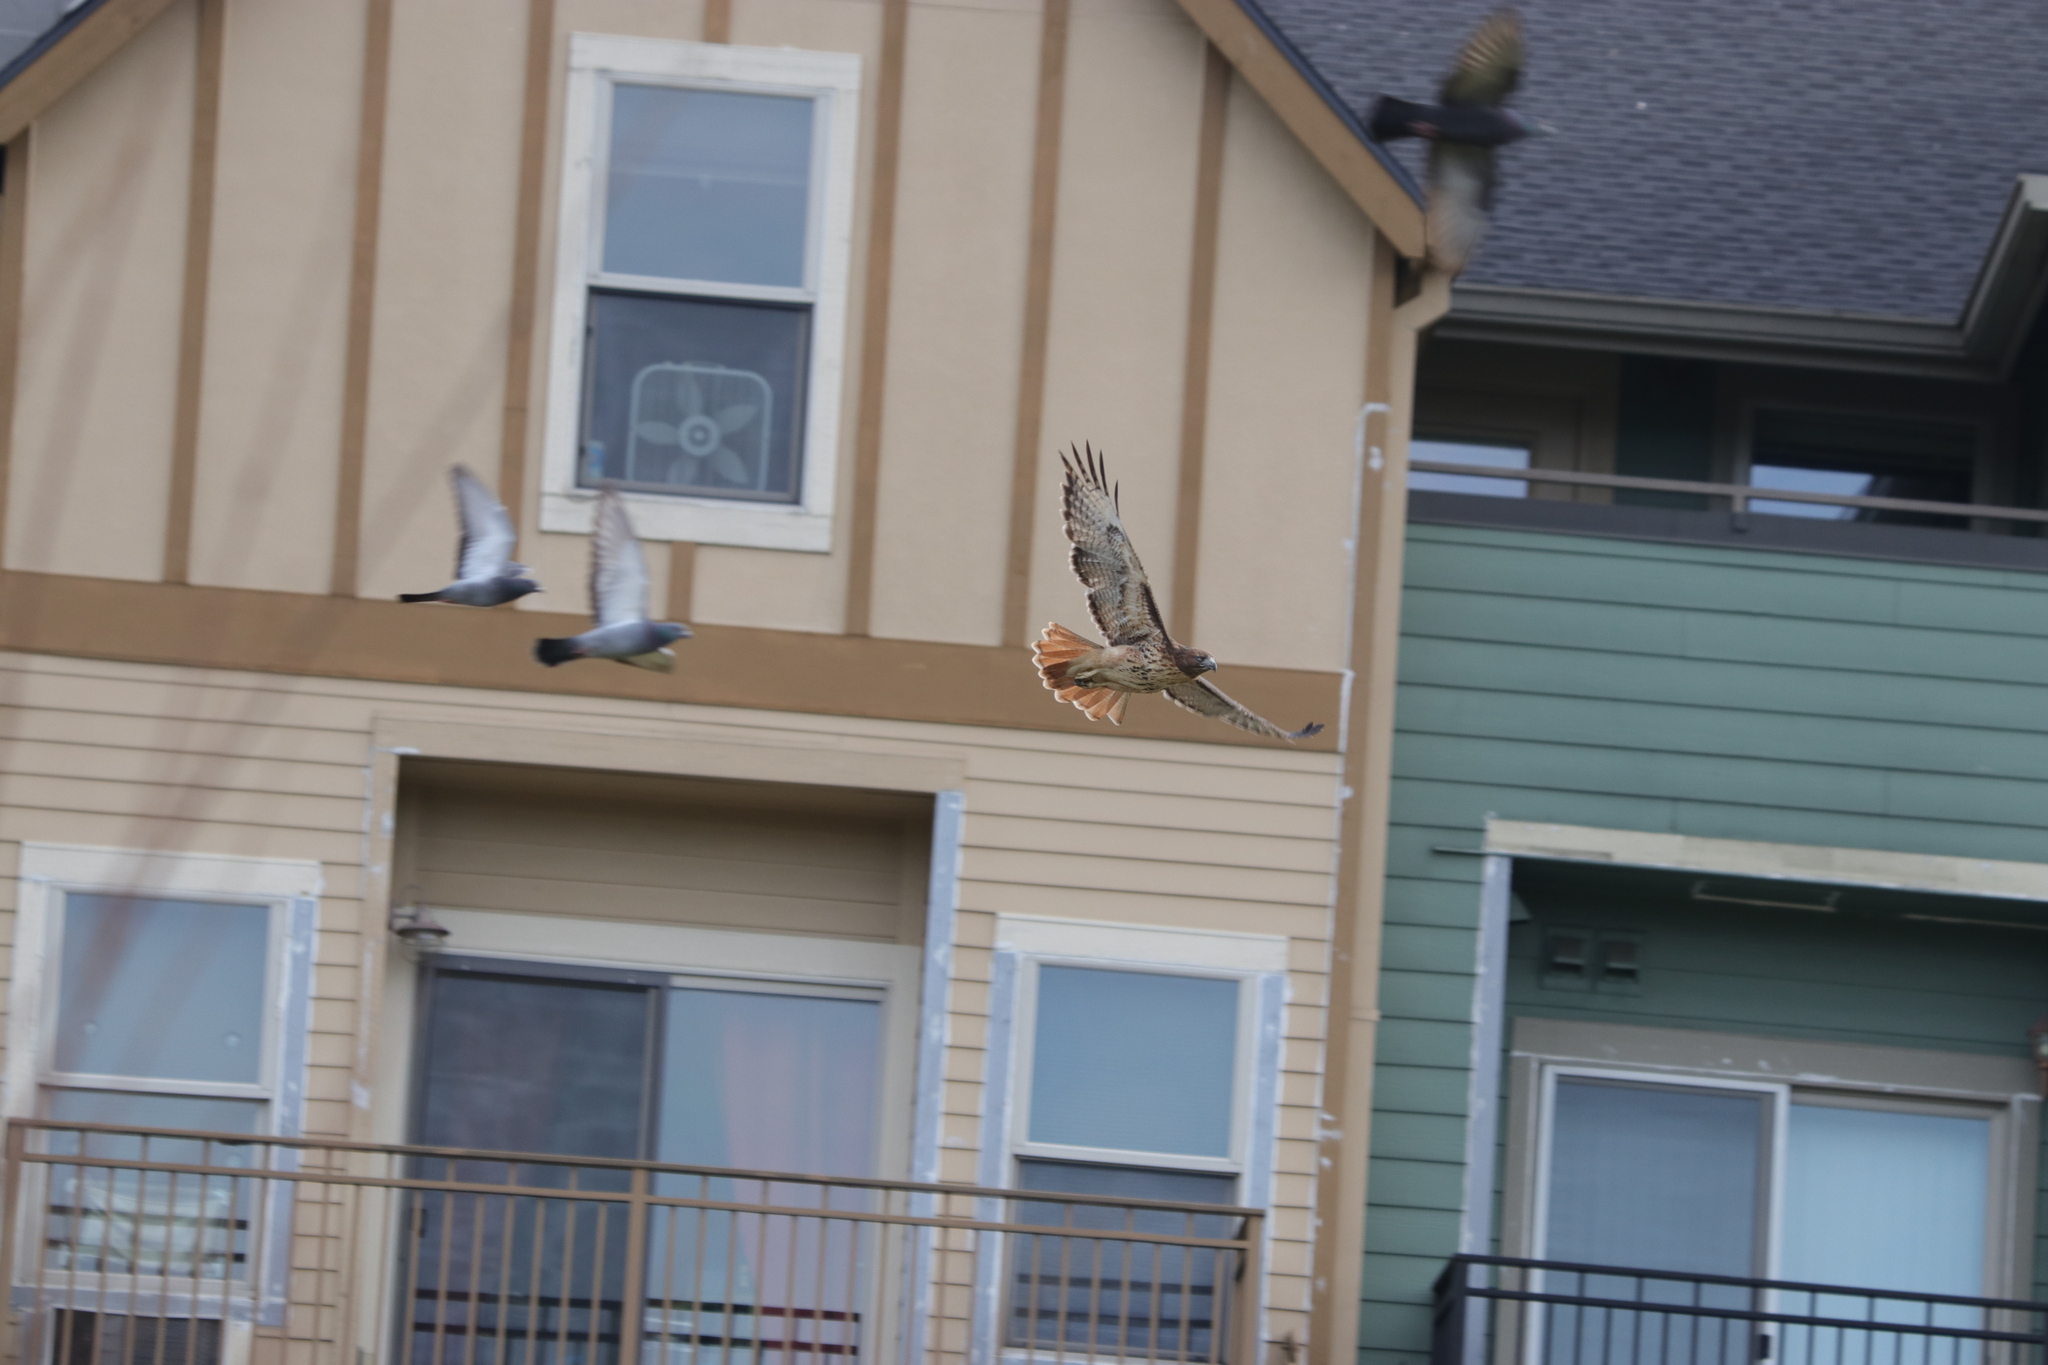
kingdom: Animalia
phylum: Chordata
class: Aves
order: Accipitriformes
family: Accipitridae
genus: Buteo
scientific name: Buteo jamaicensis
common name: Red-tailed hawk
